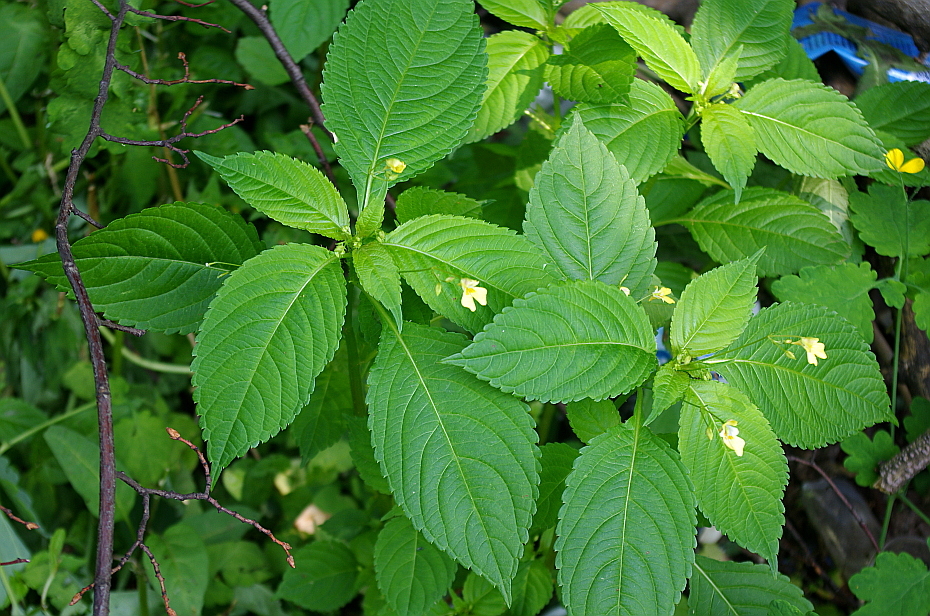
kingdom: Plantae
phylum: Tracheophyta
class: Magnoliopsida
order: Ericales
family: Balsaminaceae
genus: Impatiens
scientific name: Impatiens parviflora
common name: Small balsam
